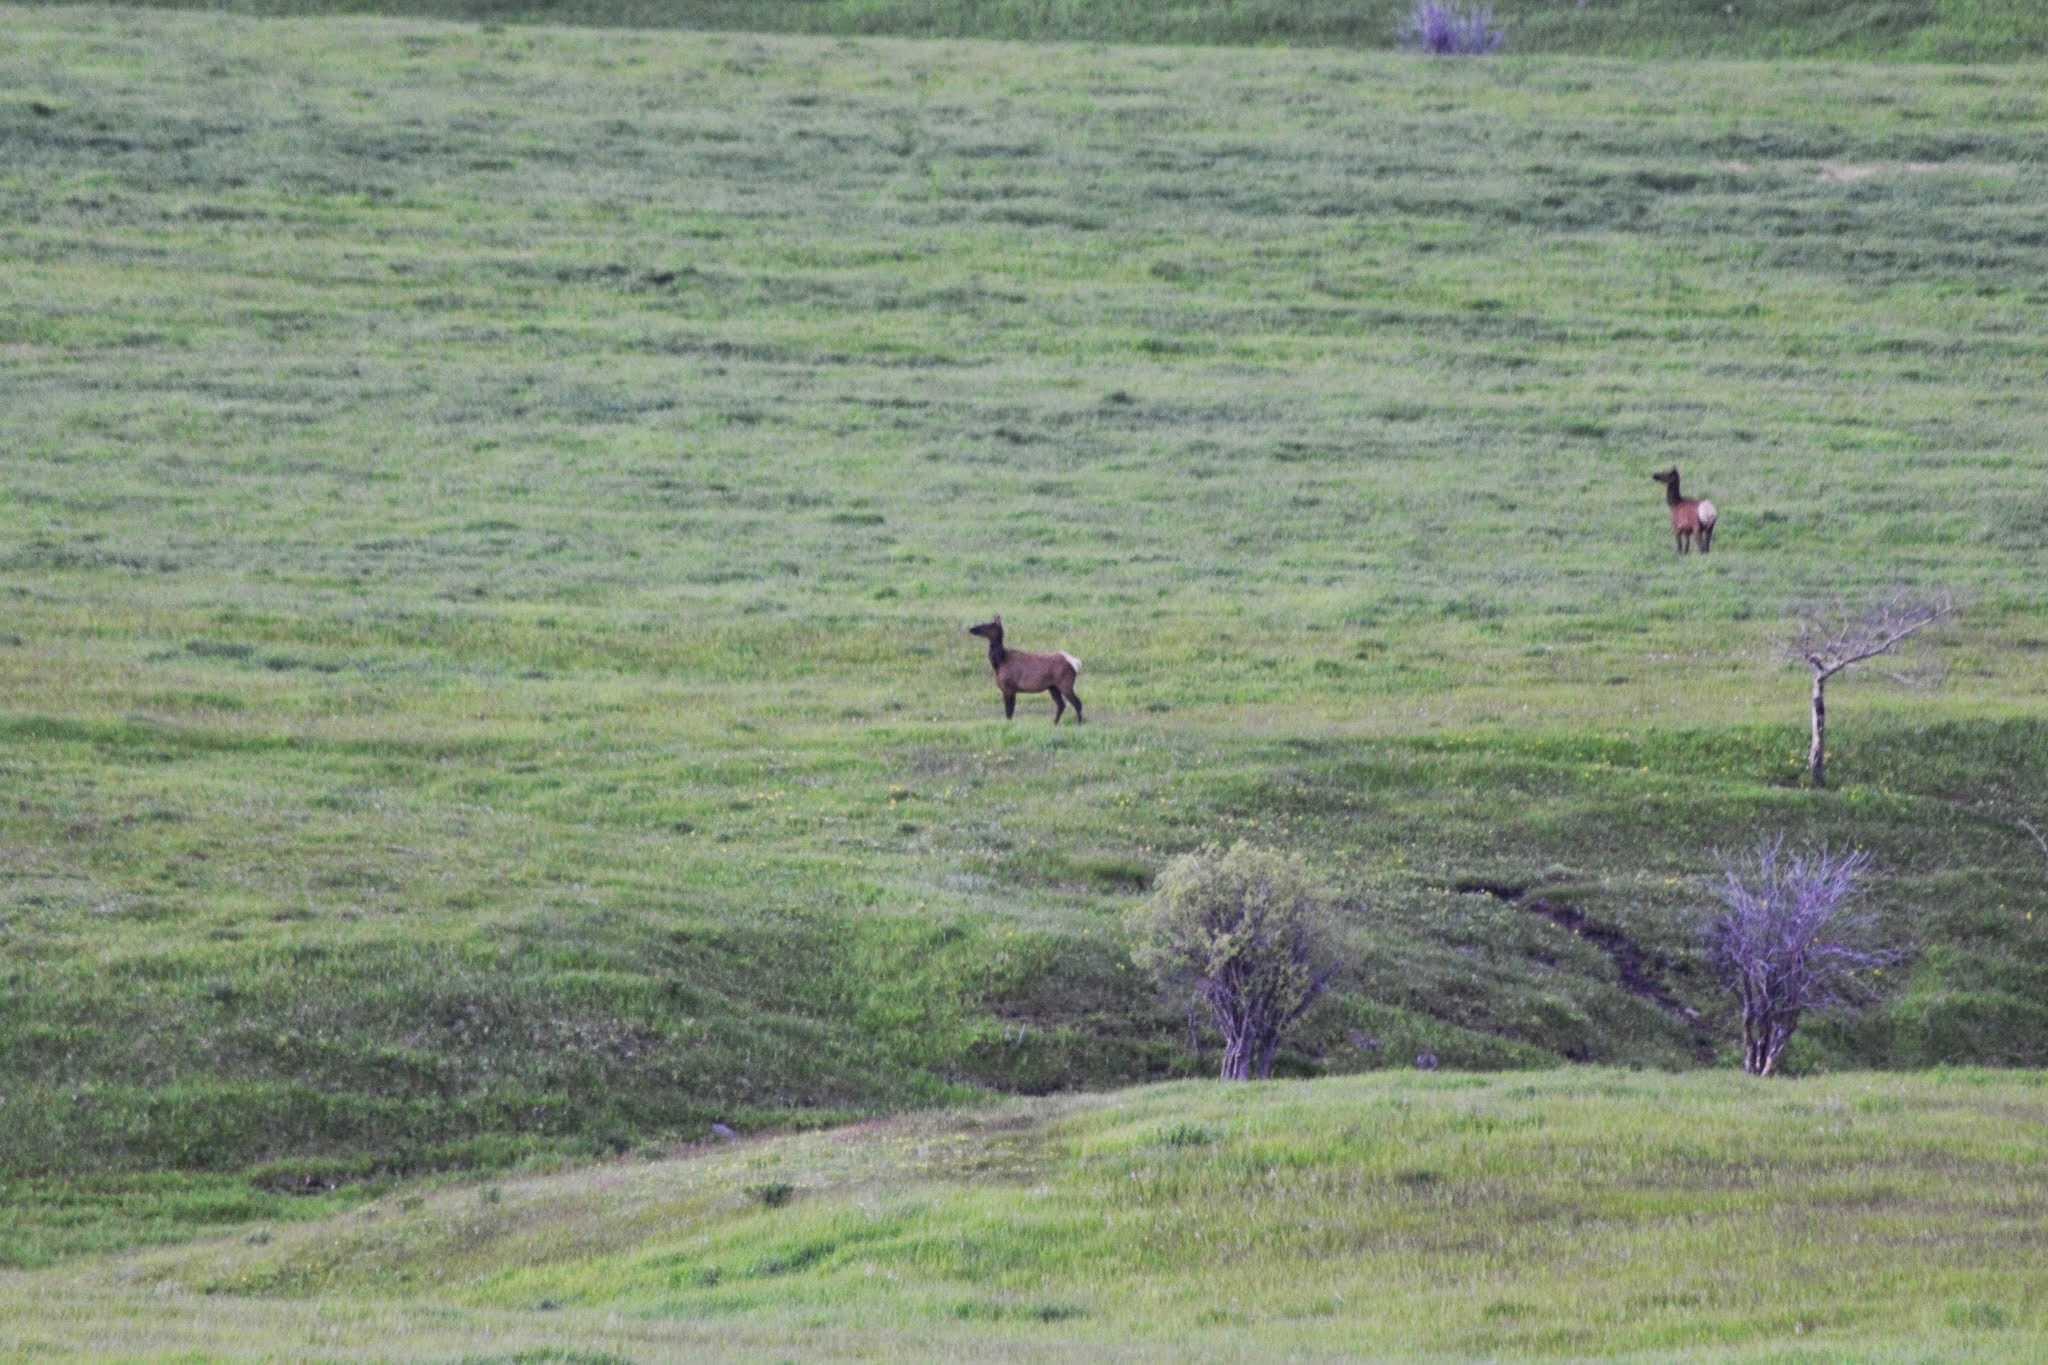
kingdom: Animalia
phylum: Chordata
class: Mammalia
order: Artiodactyla
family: Cervidae
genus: Cervus
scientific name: Cervus elaphus
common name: Red deer
